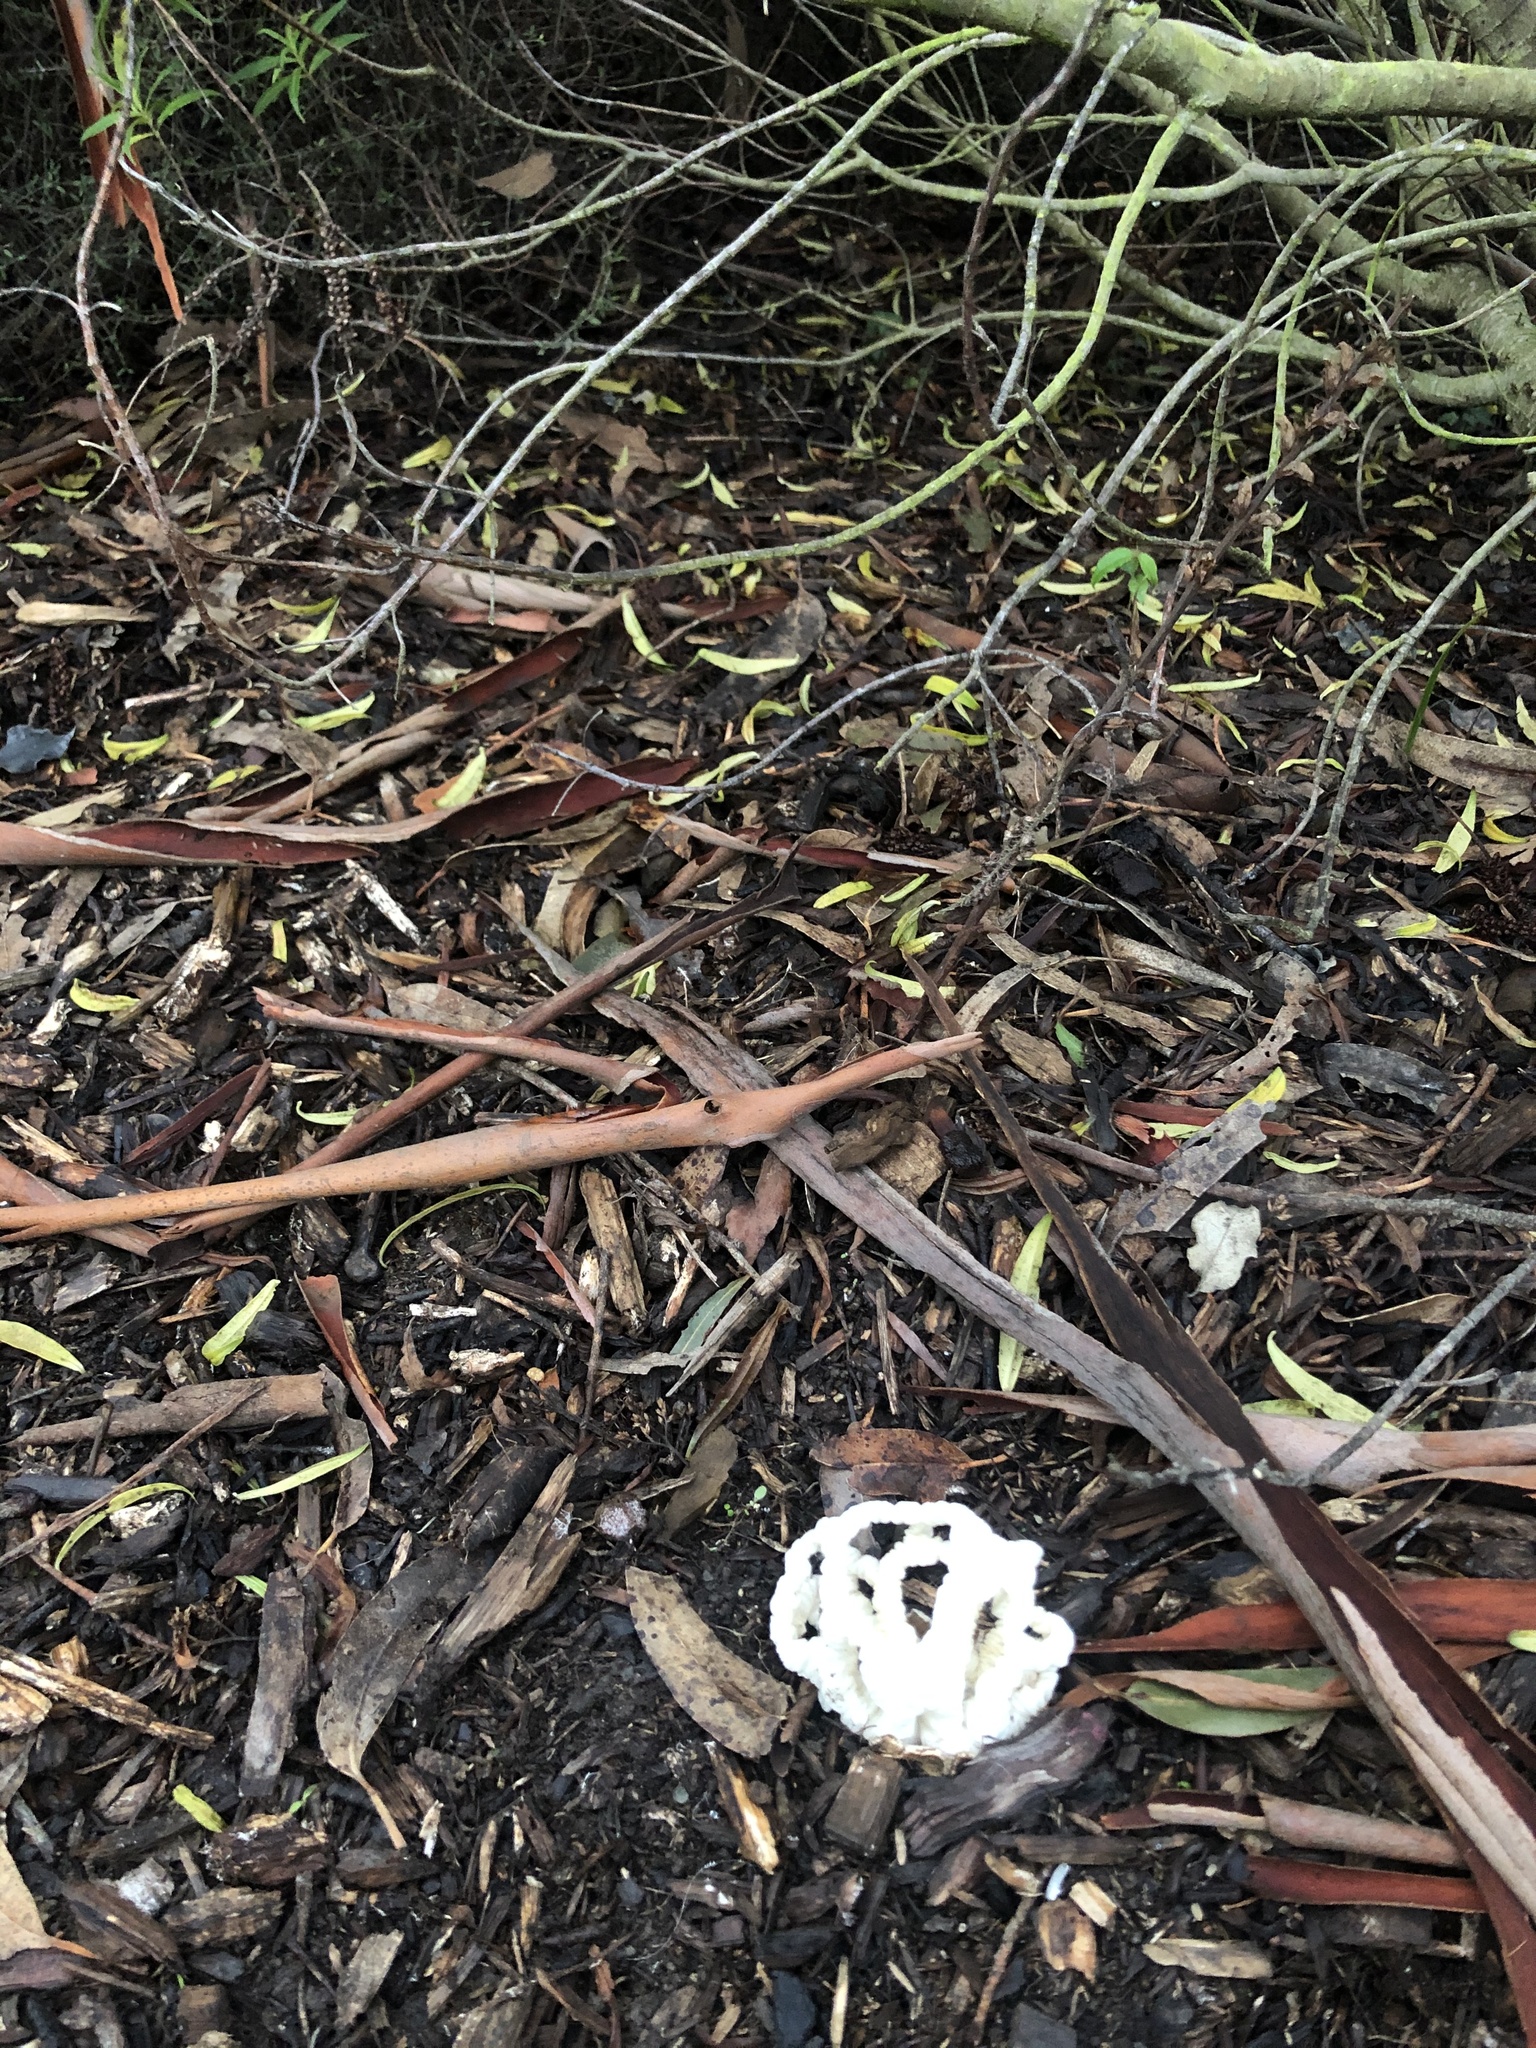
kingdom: Fungi
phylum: Basidiomycota
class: Agaricomycetes
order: Phallales
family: Phallaceae
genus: Ileodictyon
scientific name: Ileodictyon cibarium
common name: Basket fungus
